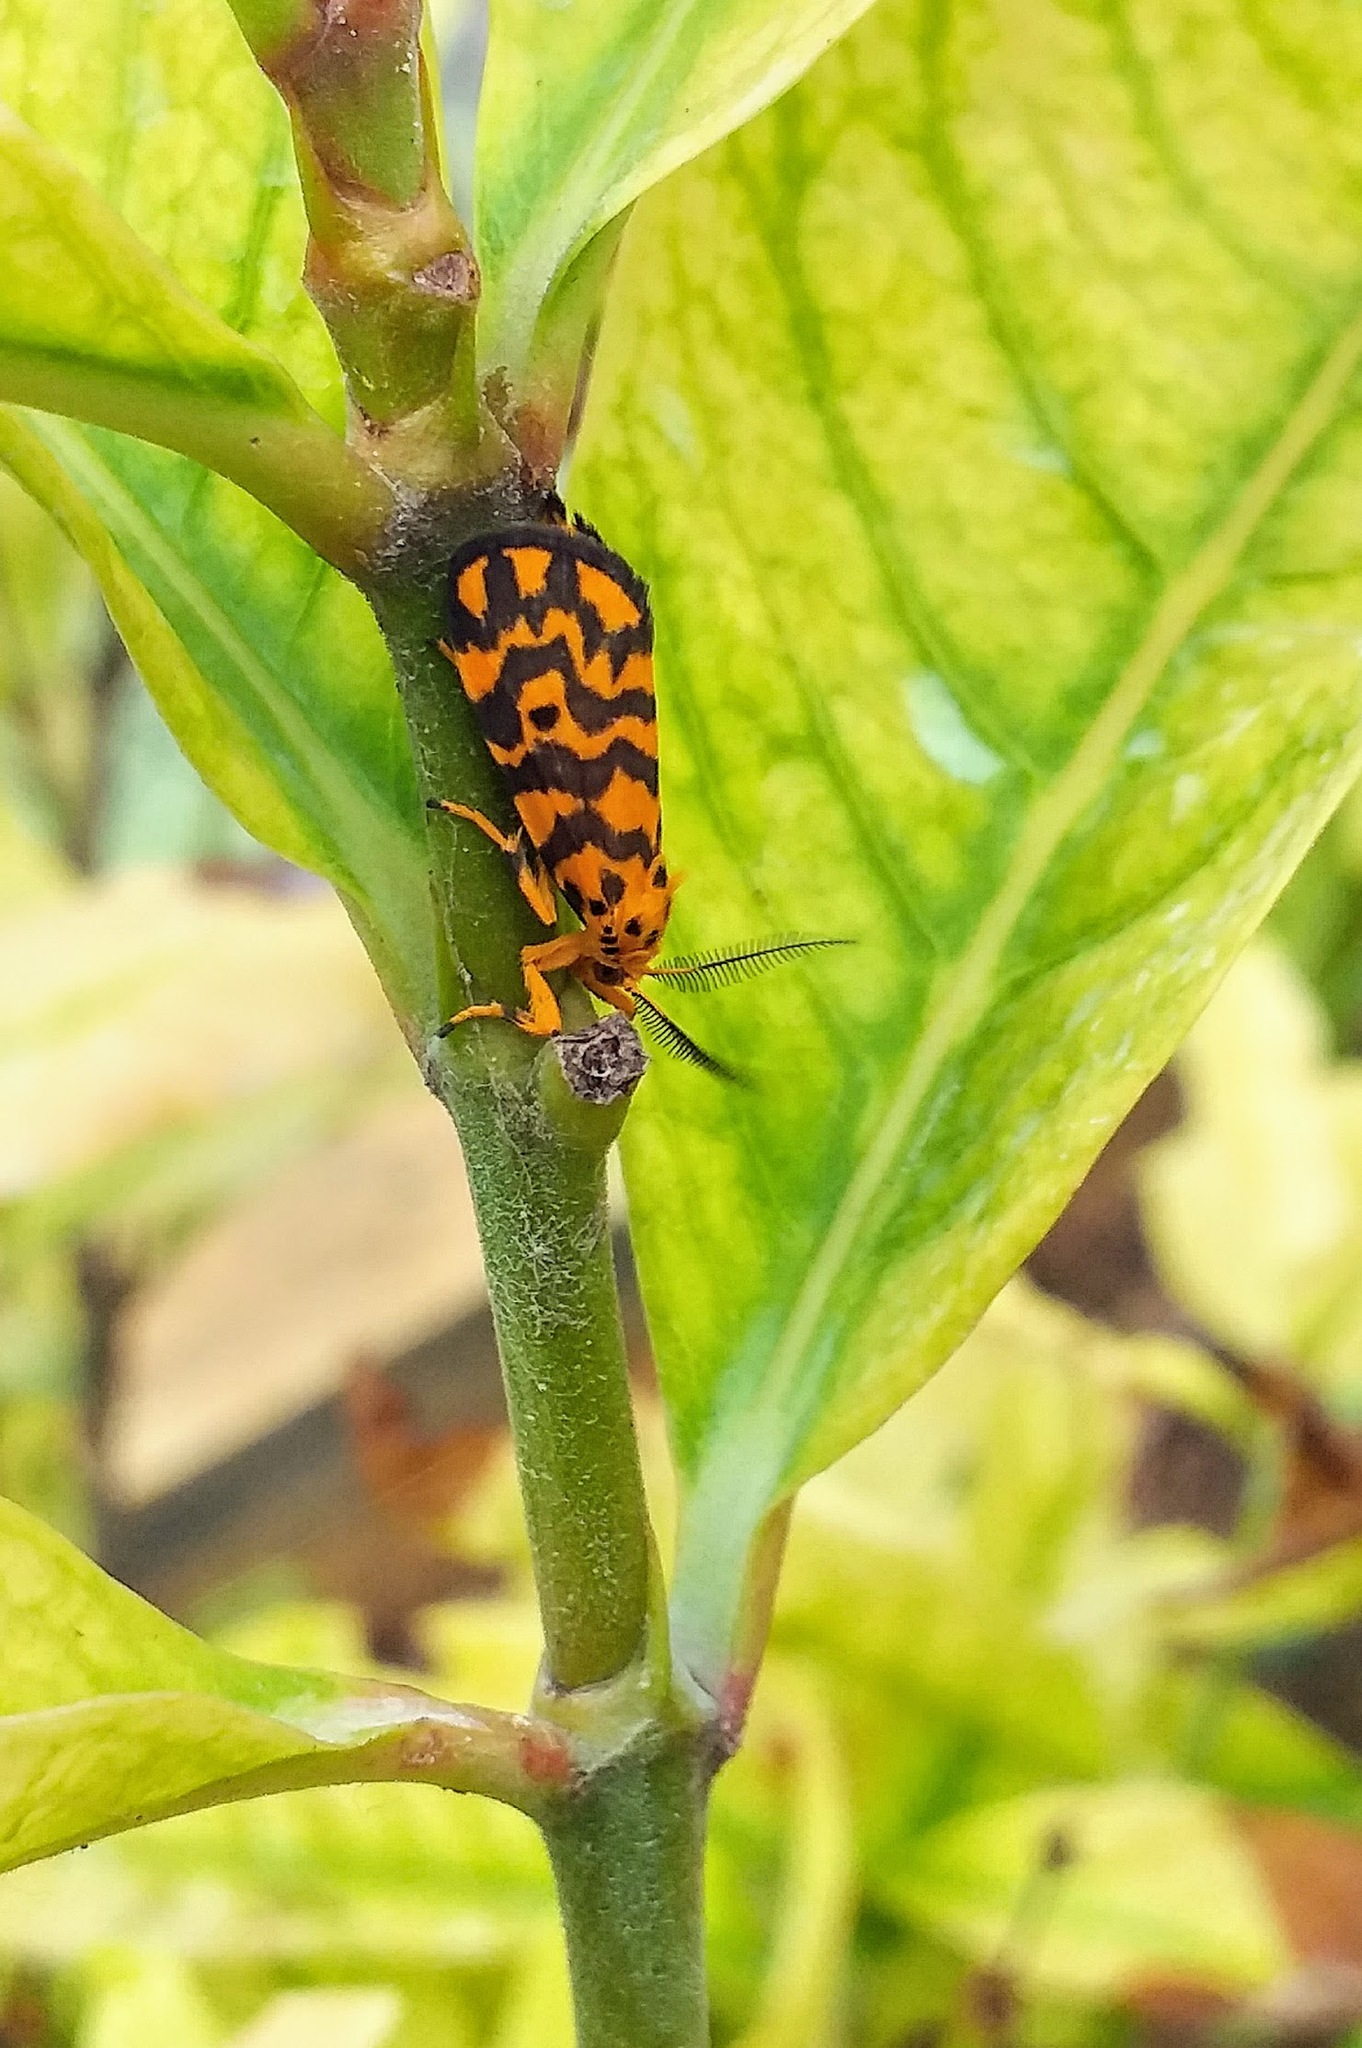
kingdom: Animalia
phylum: Arthropoda
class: Insecta
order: Lepidoptera
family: Erebidae
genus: Nepita
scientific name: Nepita conferta
